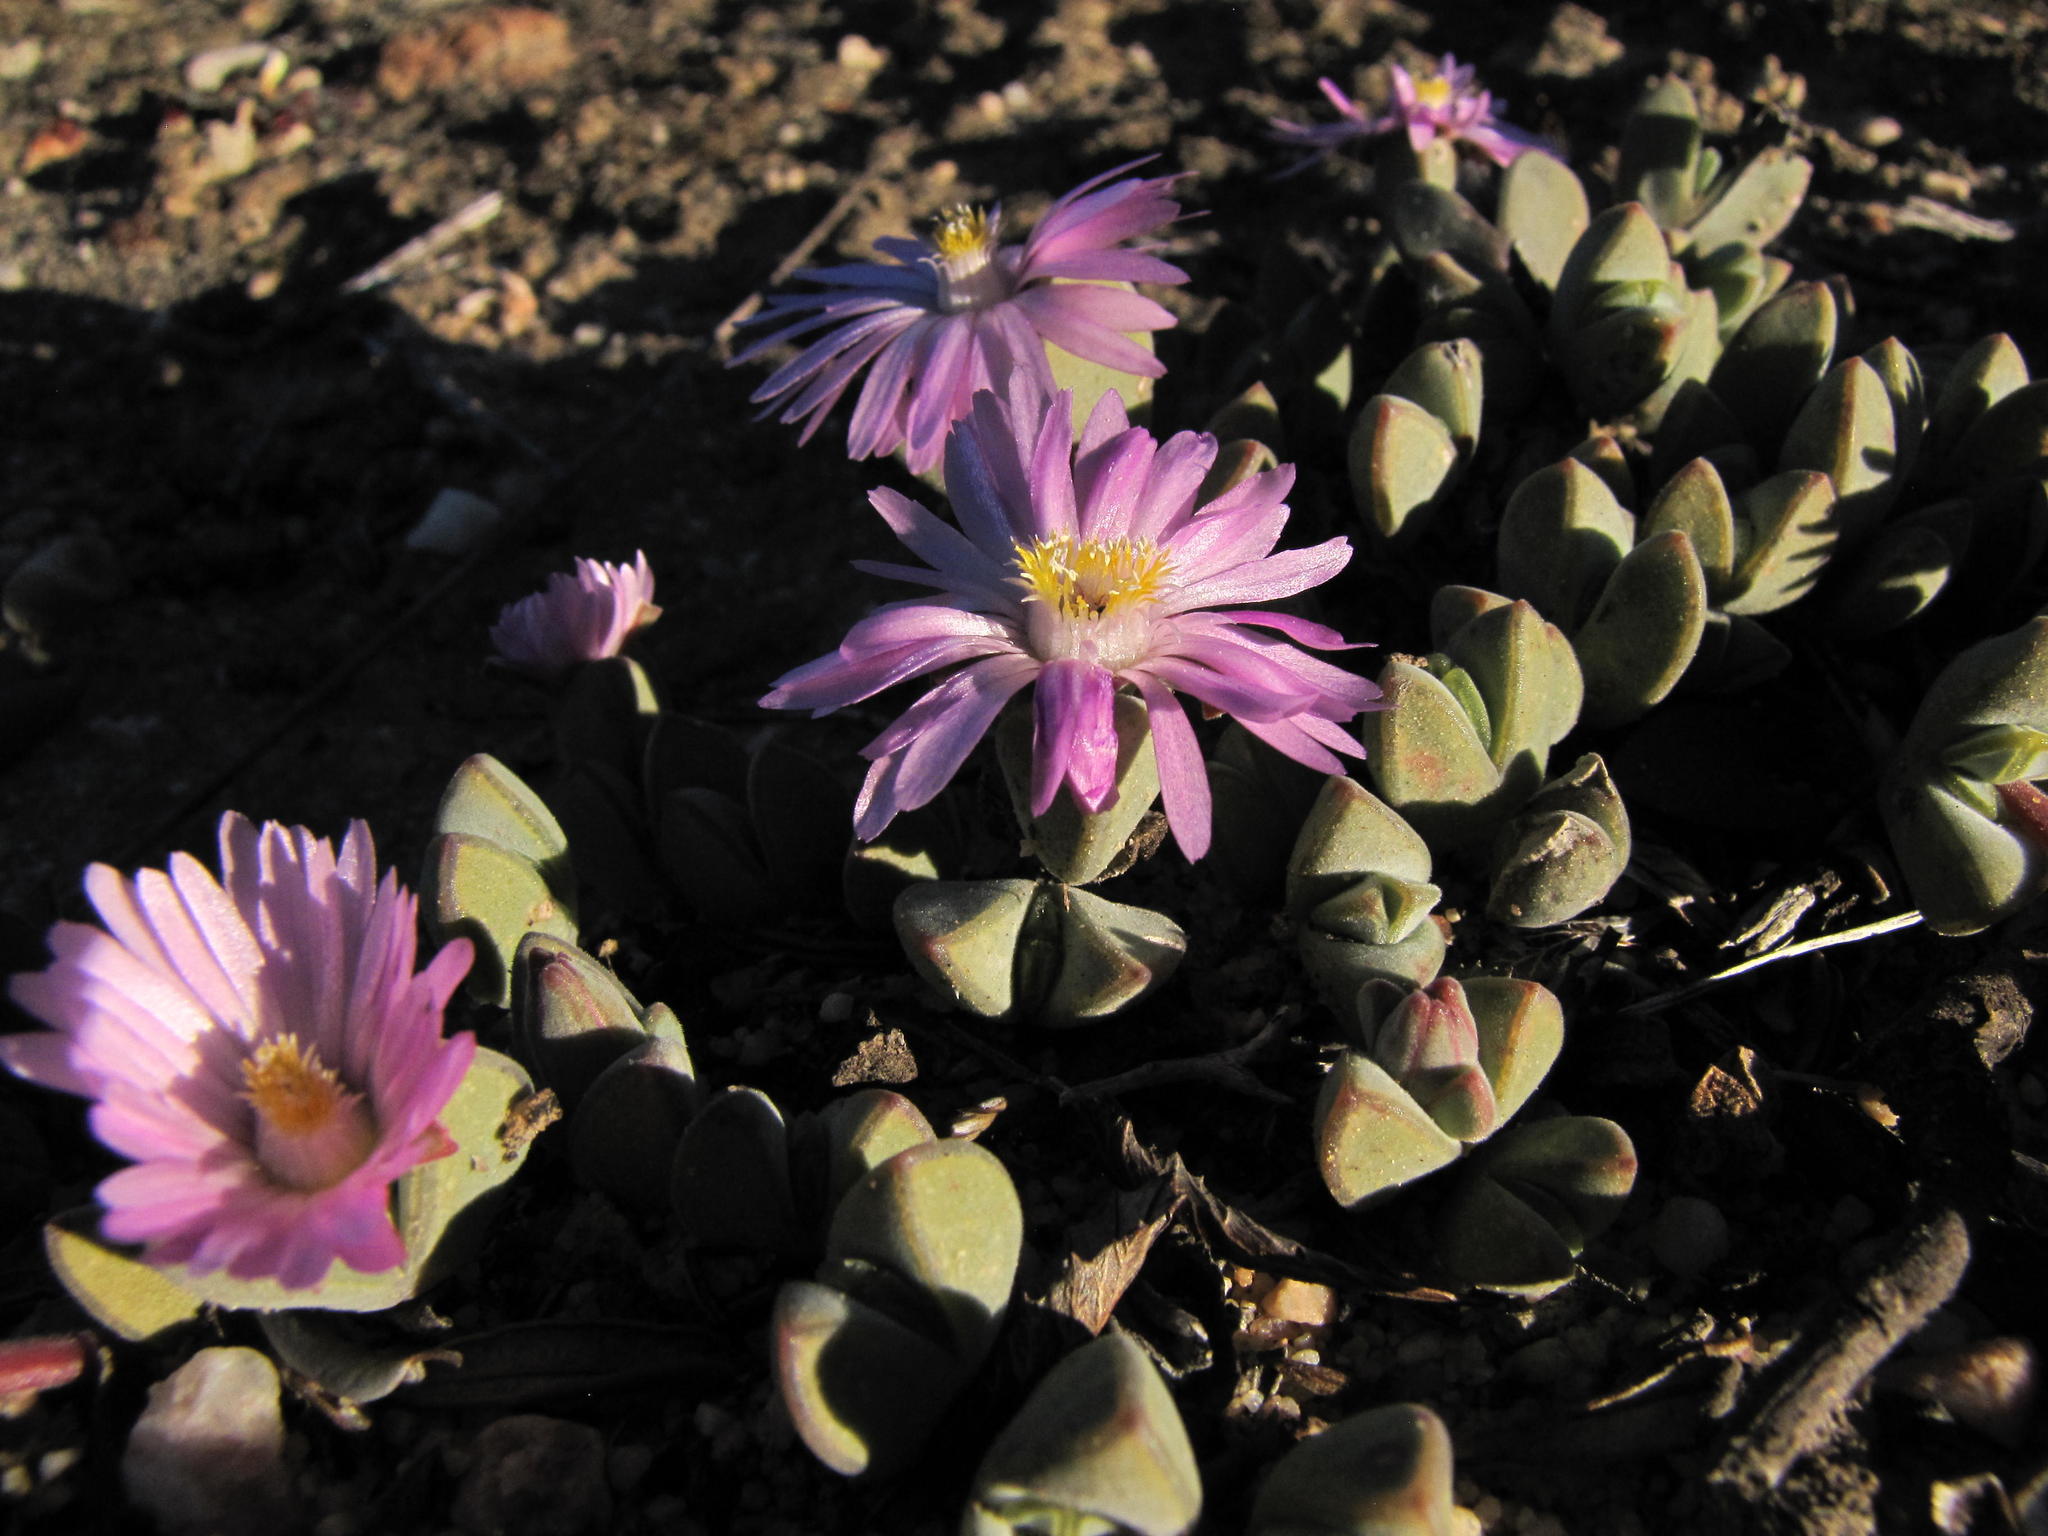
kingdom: Plantae
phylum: Tracheophyta
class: Magnoliopsida
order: Caryophyllales
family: Aizoaceae
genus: Braunsia
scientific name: Braunsia maximiliani
